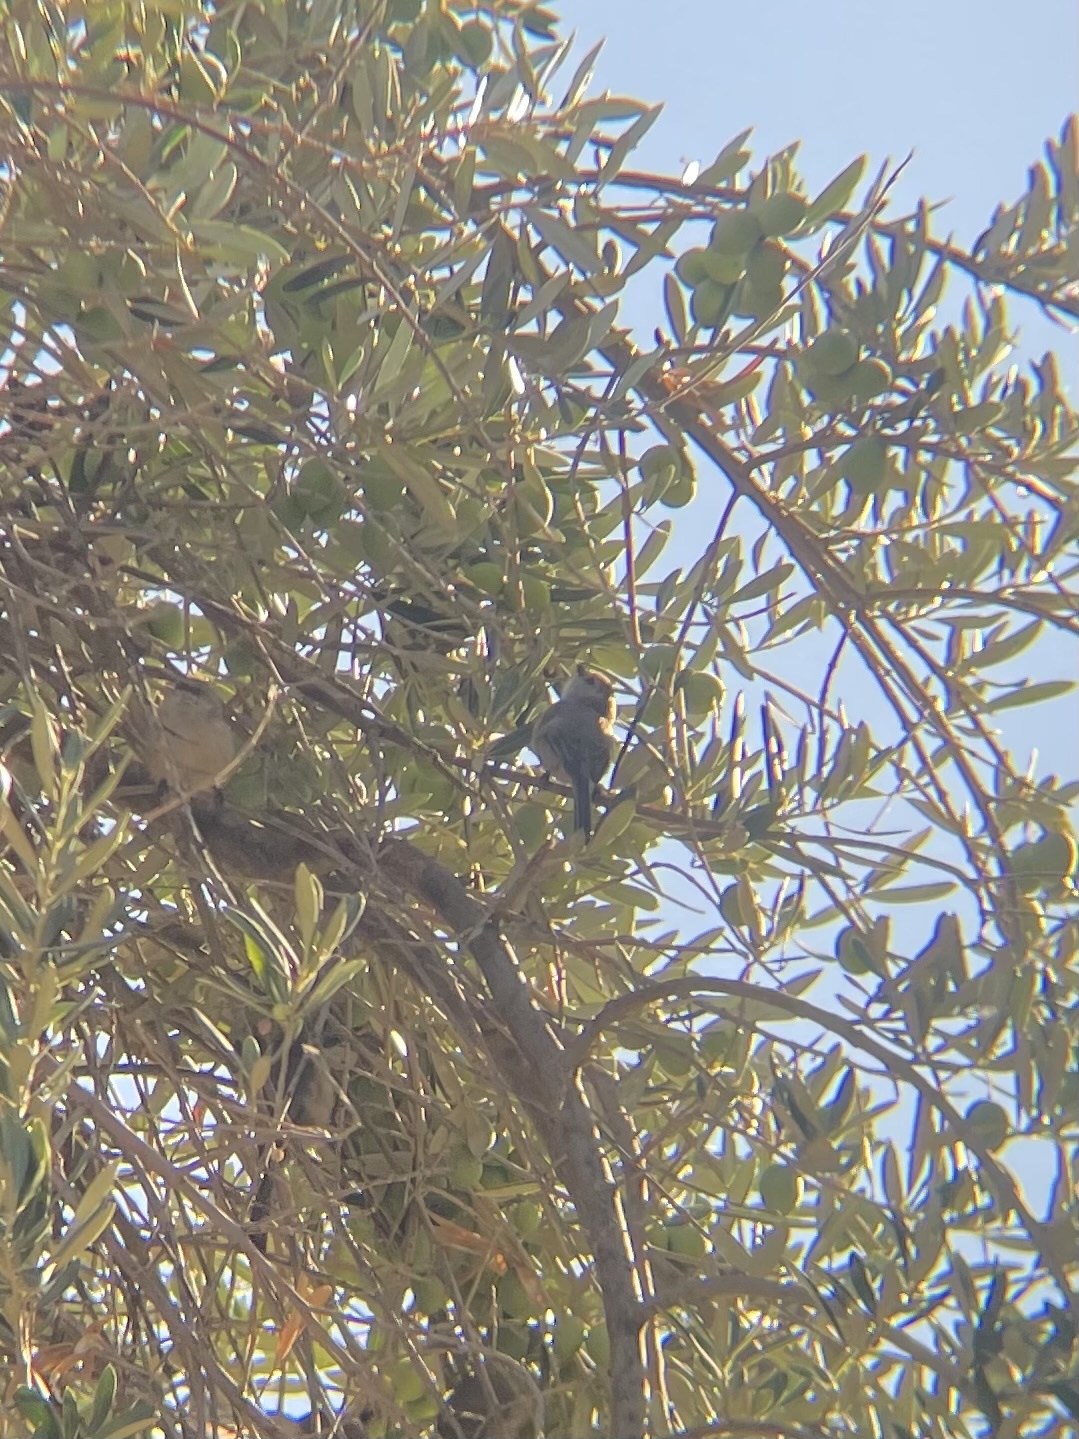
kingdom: Animalia
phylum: Chordata
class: Aves
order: Passeriformes
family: Aegithalidae
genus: Psaltriparus
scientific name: Psaltriparus minimus
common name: American bushtit
